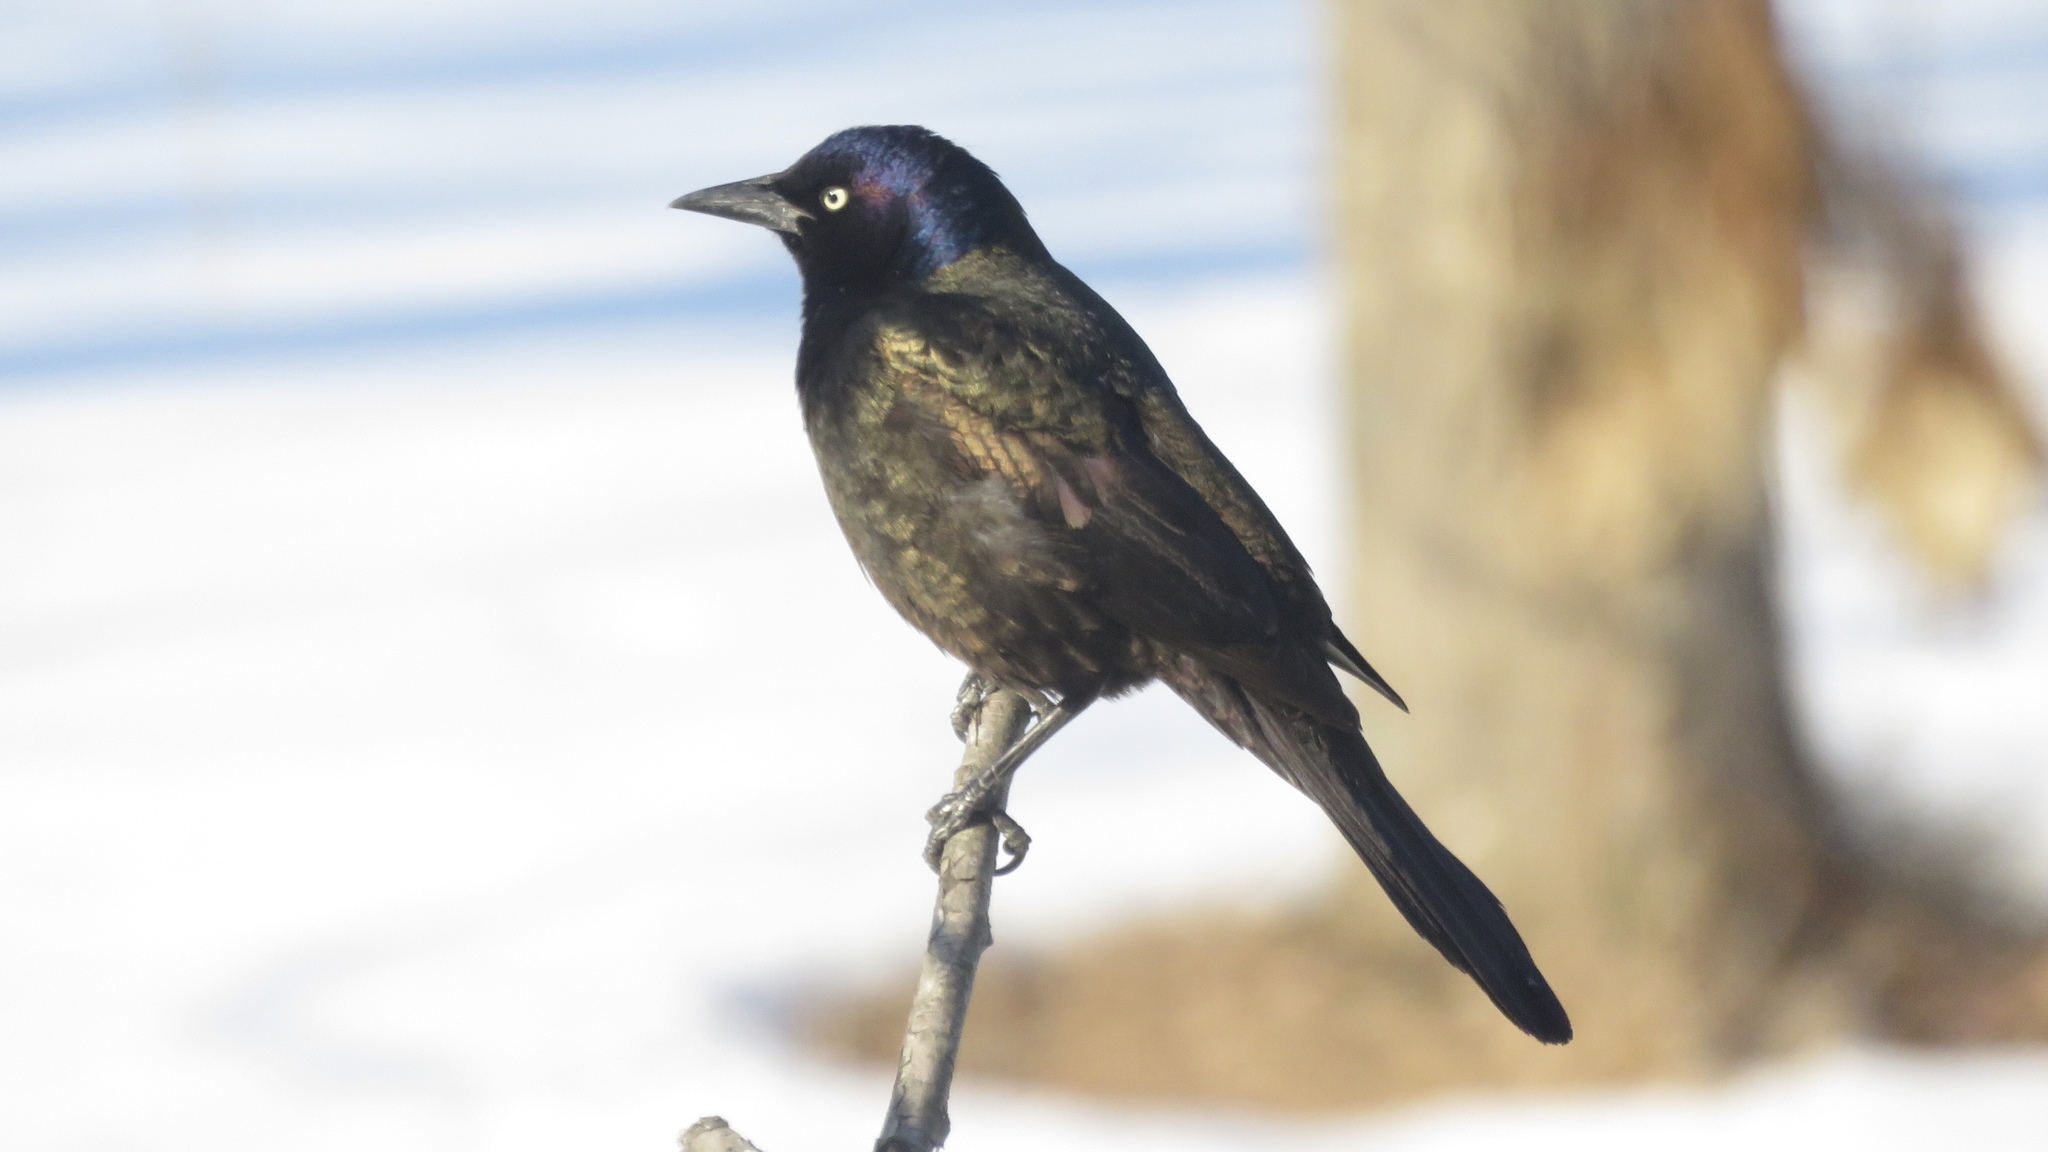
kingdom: Animalia
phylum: Chordata
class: Aves
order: Passeriformes
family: Icteridae
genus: Quiscalus
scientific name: Quiscalus quiscula
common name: Common grackle
